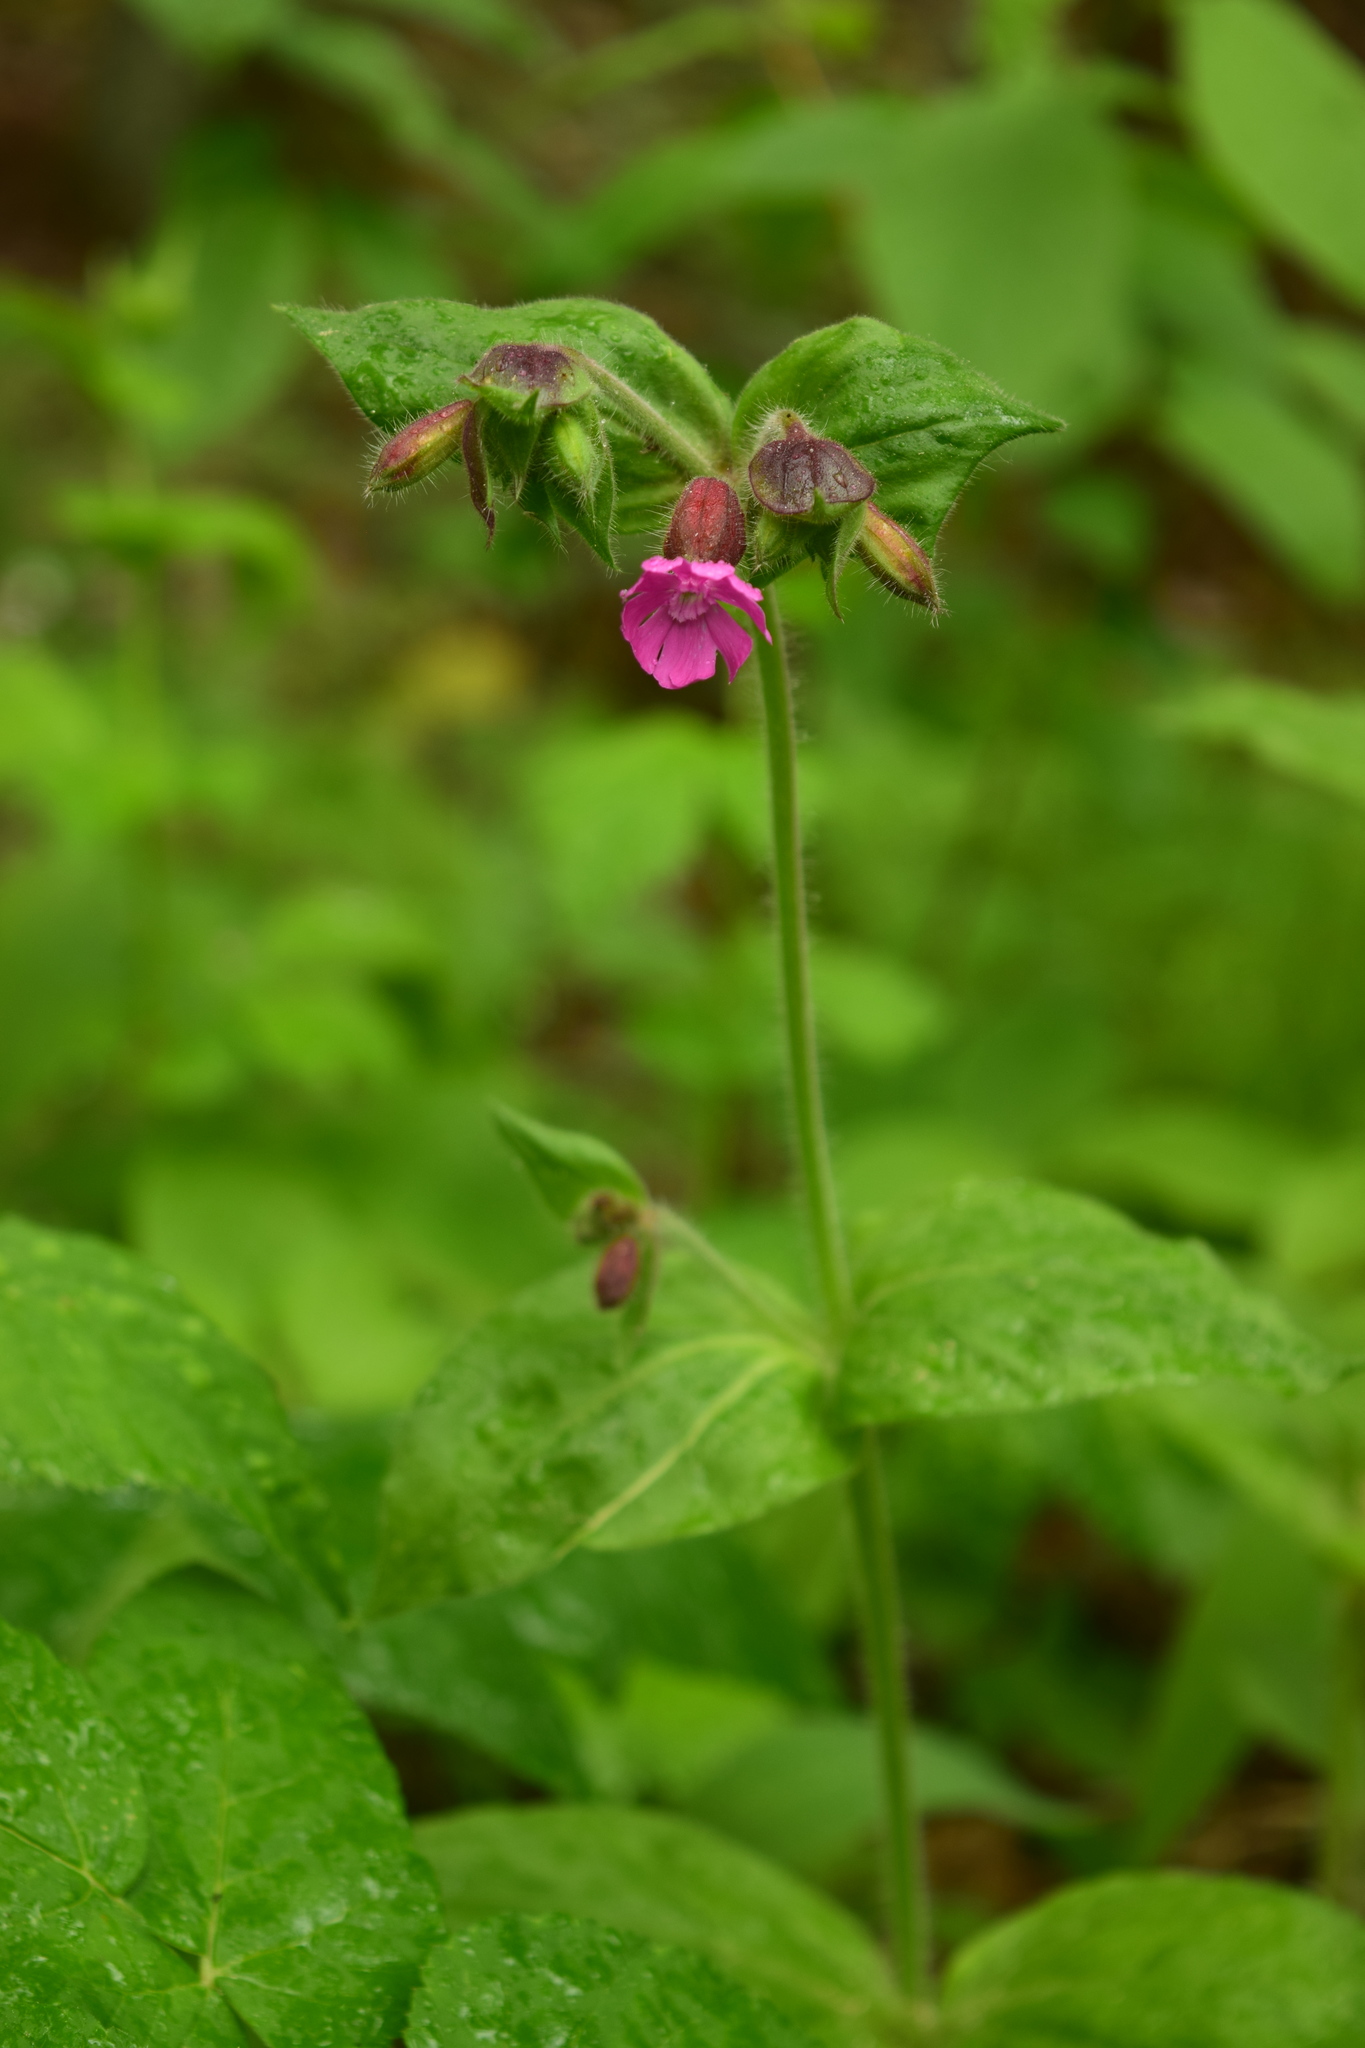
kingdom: Plantae
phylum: Tracheophyta
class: Magnoliopsida
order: Caryophyllales
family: Caryophyllaceae
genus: Silene
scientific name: Silene dioica
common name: Red campion
